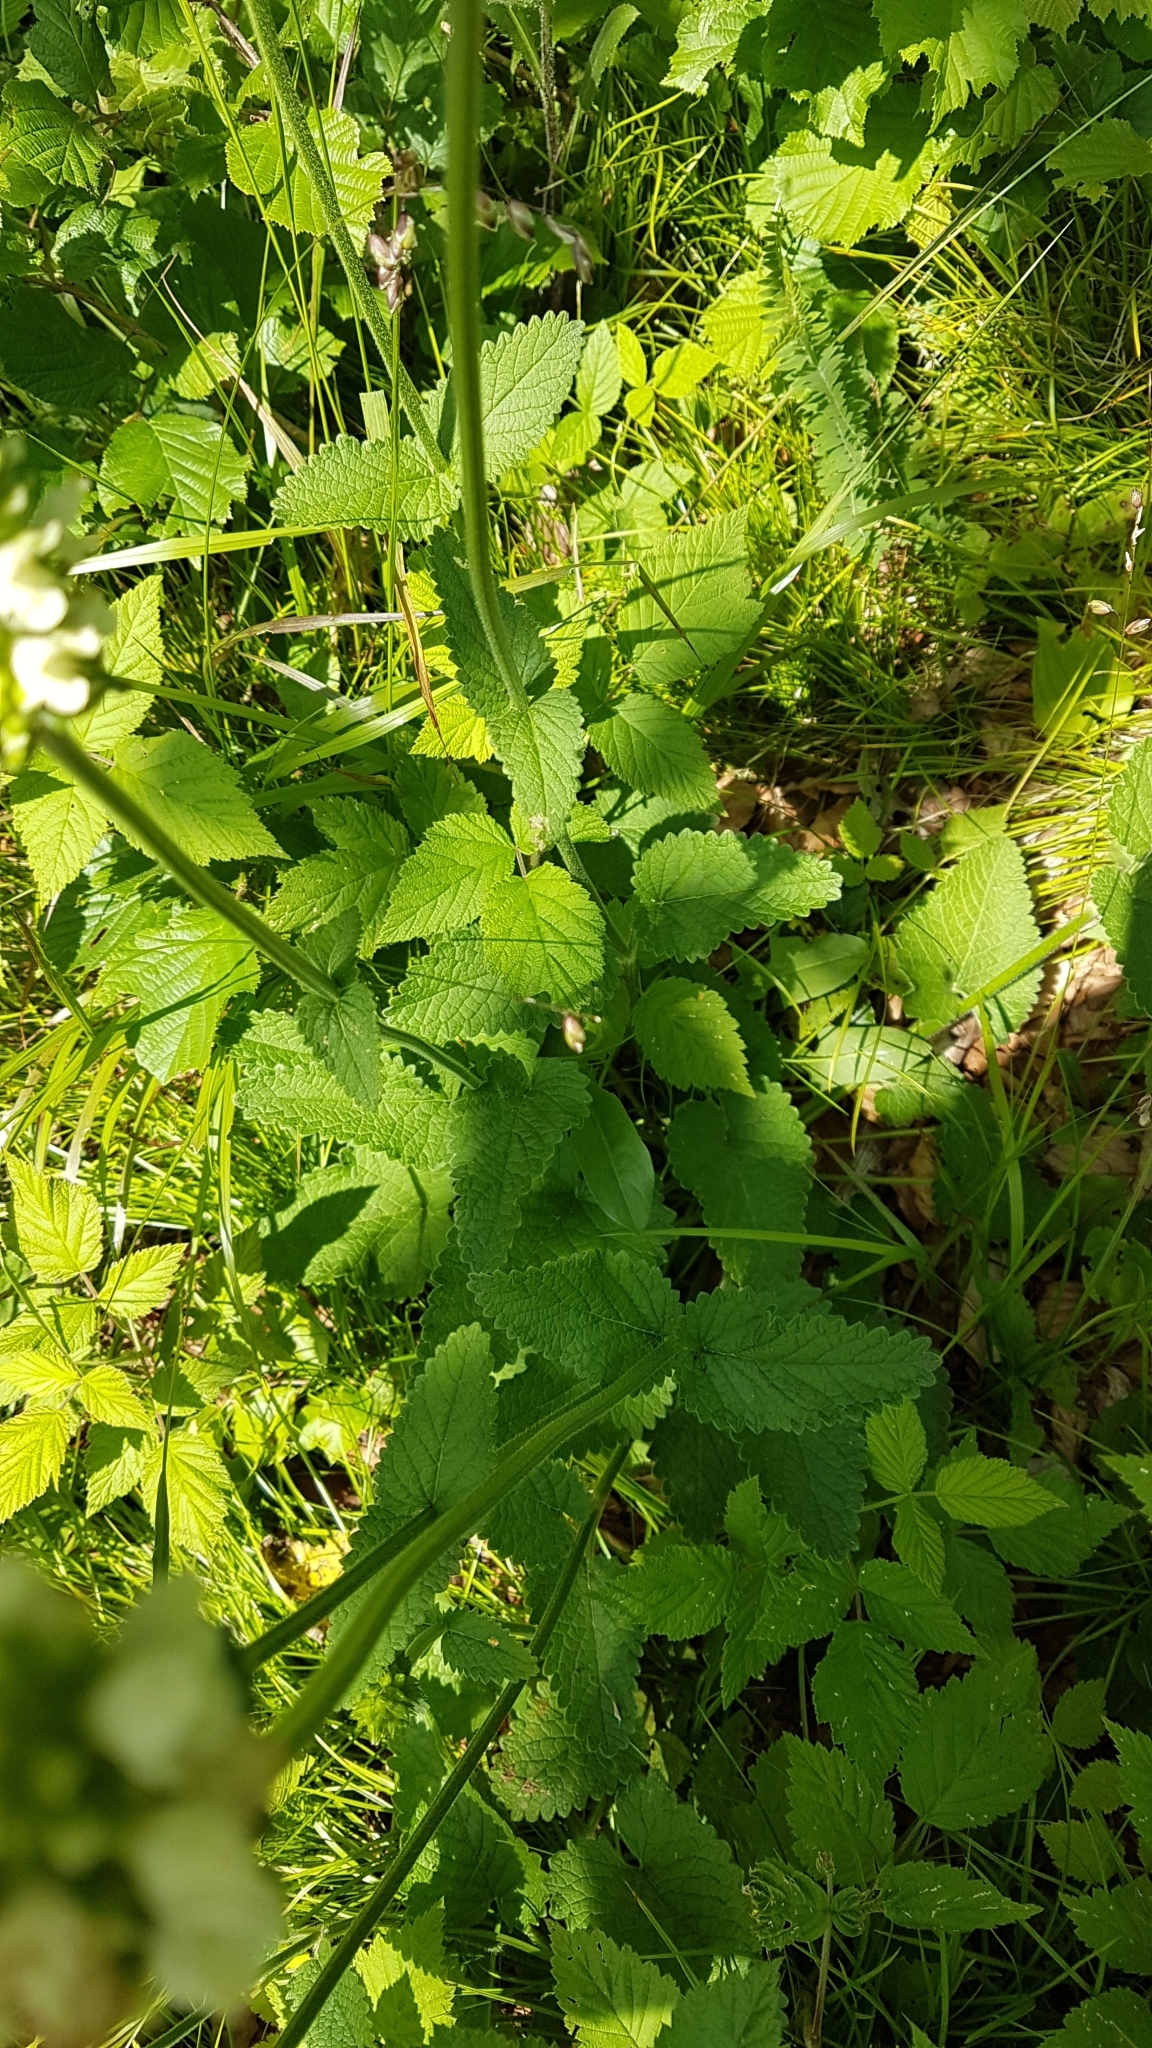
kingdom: Plantae
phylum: Tracheophyta
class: Magnoliopsida
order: Lamiales
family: Lamiaceae
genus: Betonica
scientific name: Betonica alopecuros
